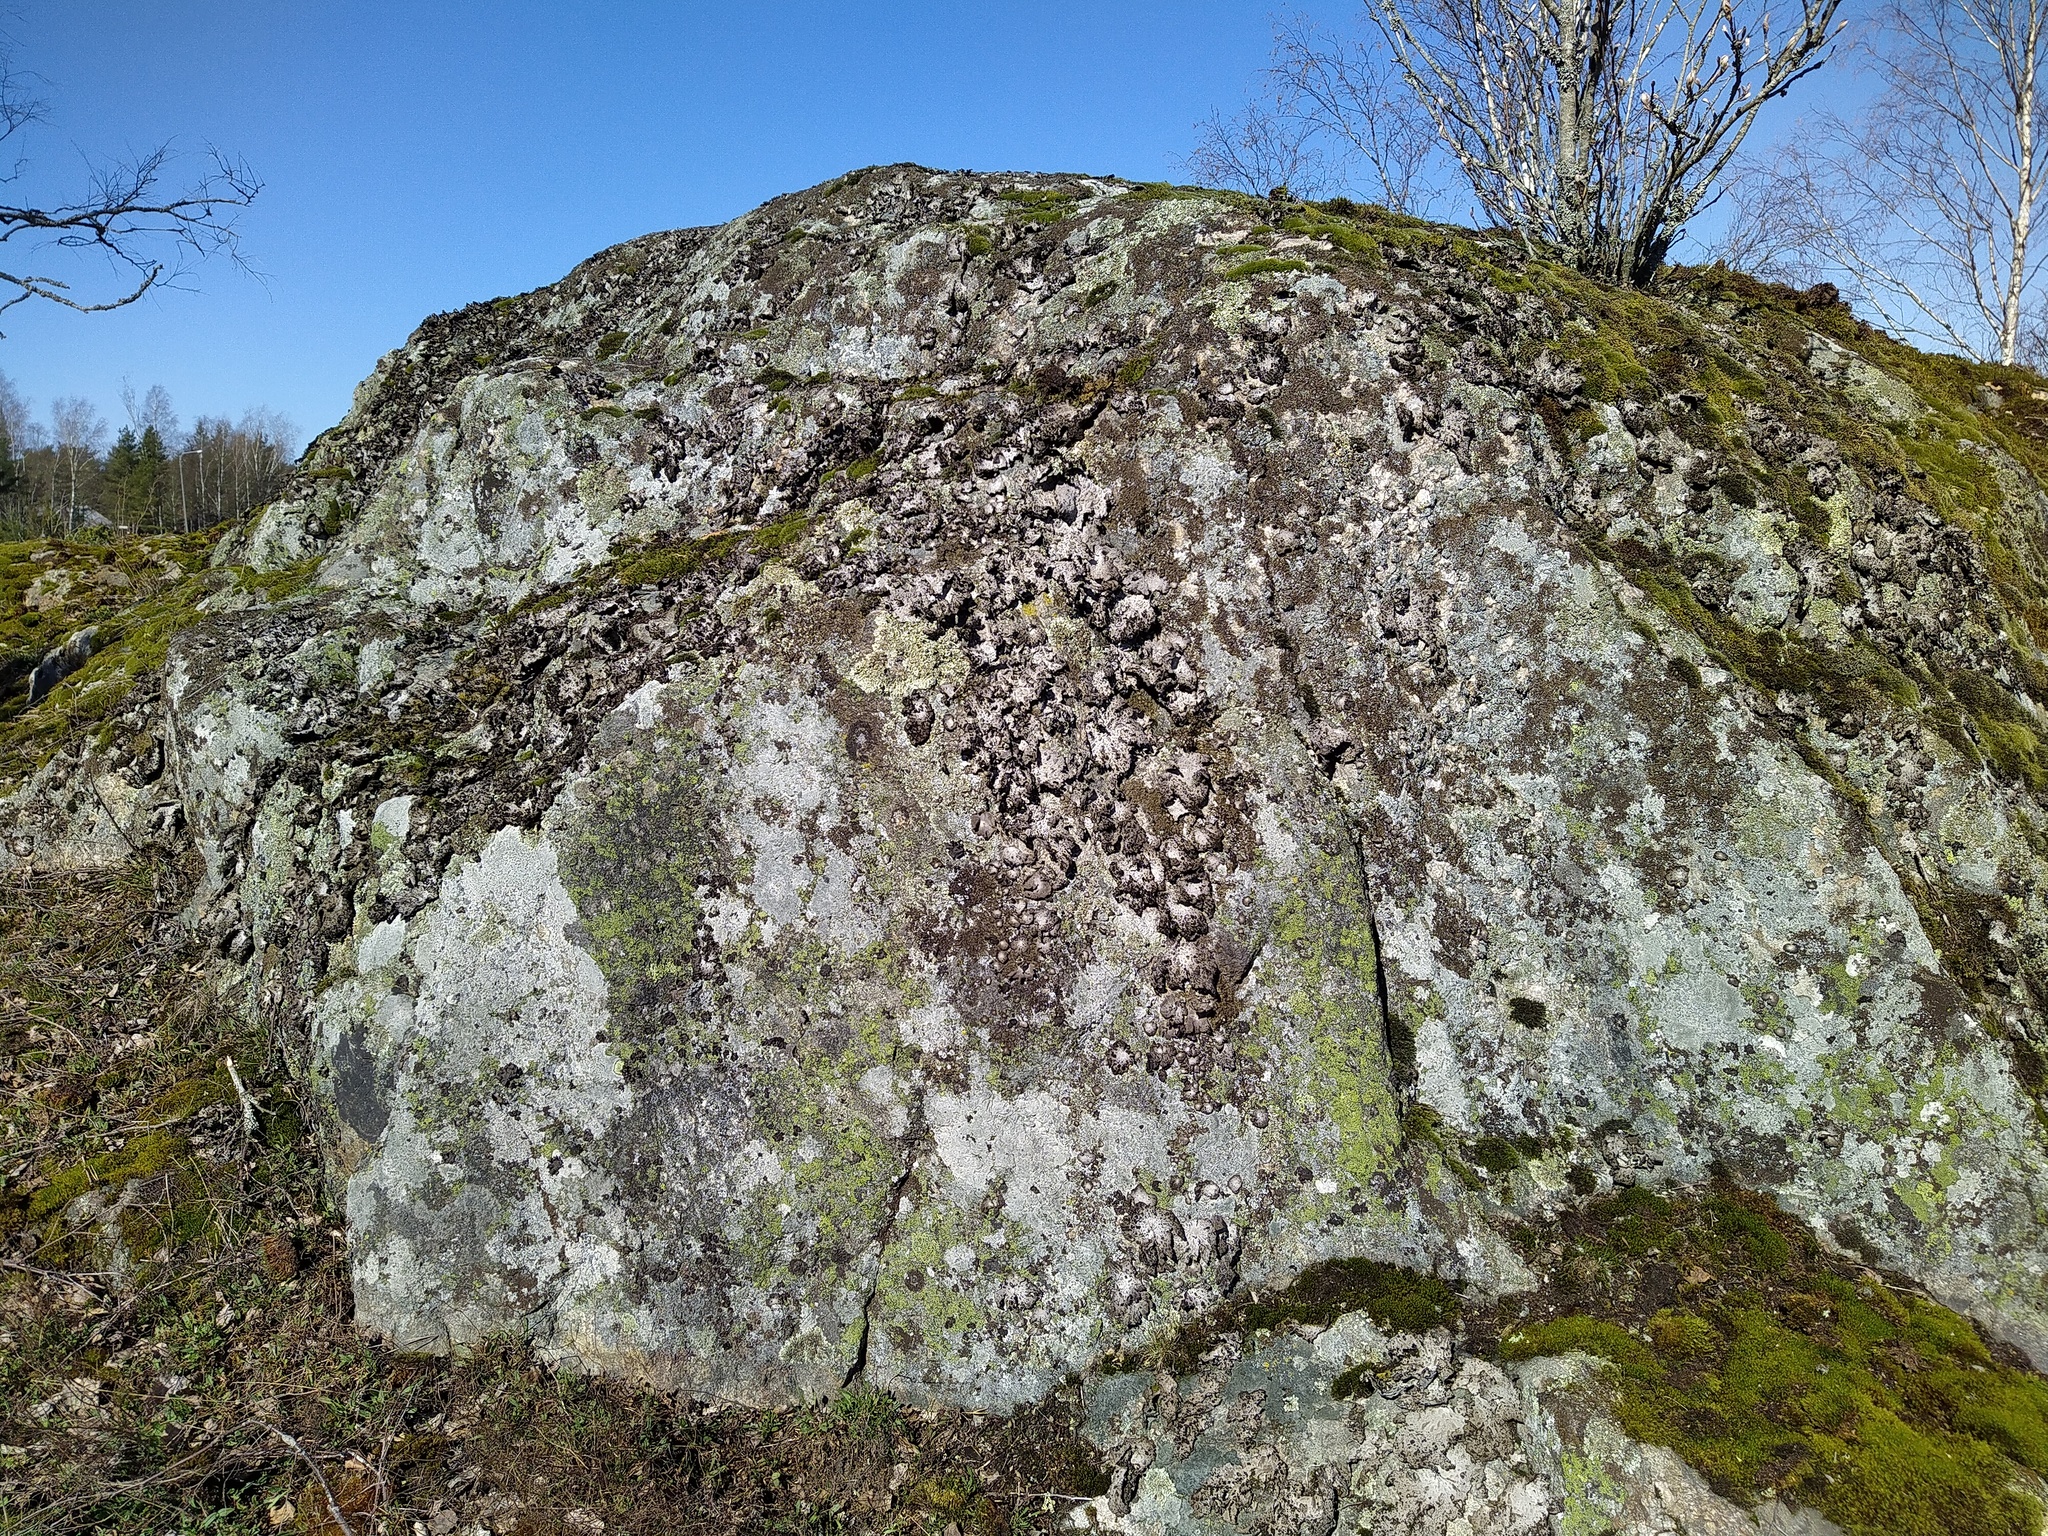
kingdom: Fungi
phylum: Ascomycota
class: Lecanoromycetes
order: Umbilicariales
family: Umbilicariaceae
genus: Lasallia
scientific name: Lasallia pustulata
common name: Blistered toadskin lichen
